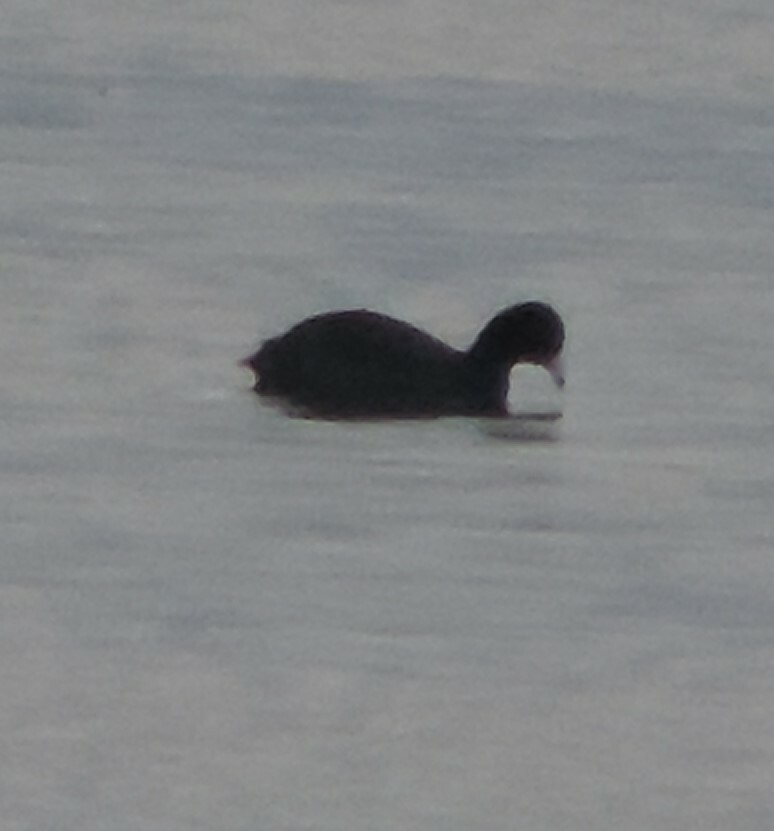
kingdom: Animalia
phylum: Chordata
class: Aves
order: Gruiformes
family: Rallidae
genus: Fulica
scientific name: Fulica americana
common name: American coot
